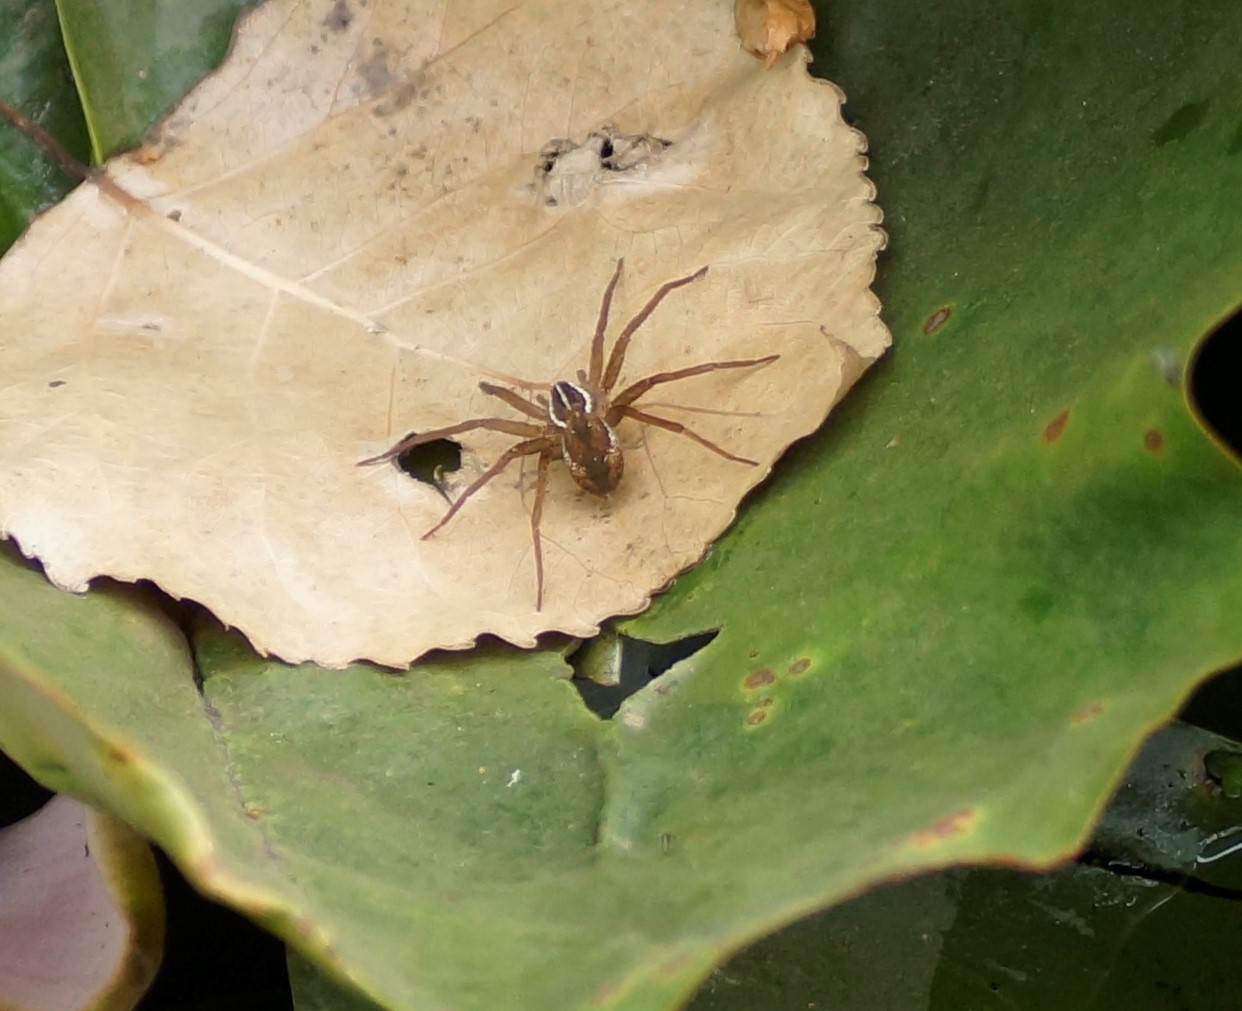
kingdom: Animalia
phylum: Arthropoda
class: Arachnida
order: Araneae
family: Pisauridae
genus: Dolomedes
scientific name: Dolomedes instabilis
